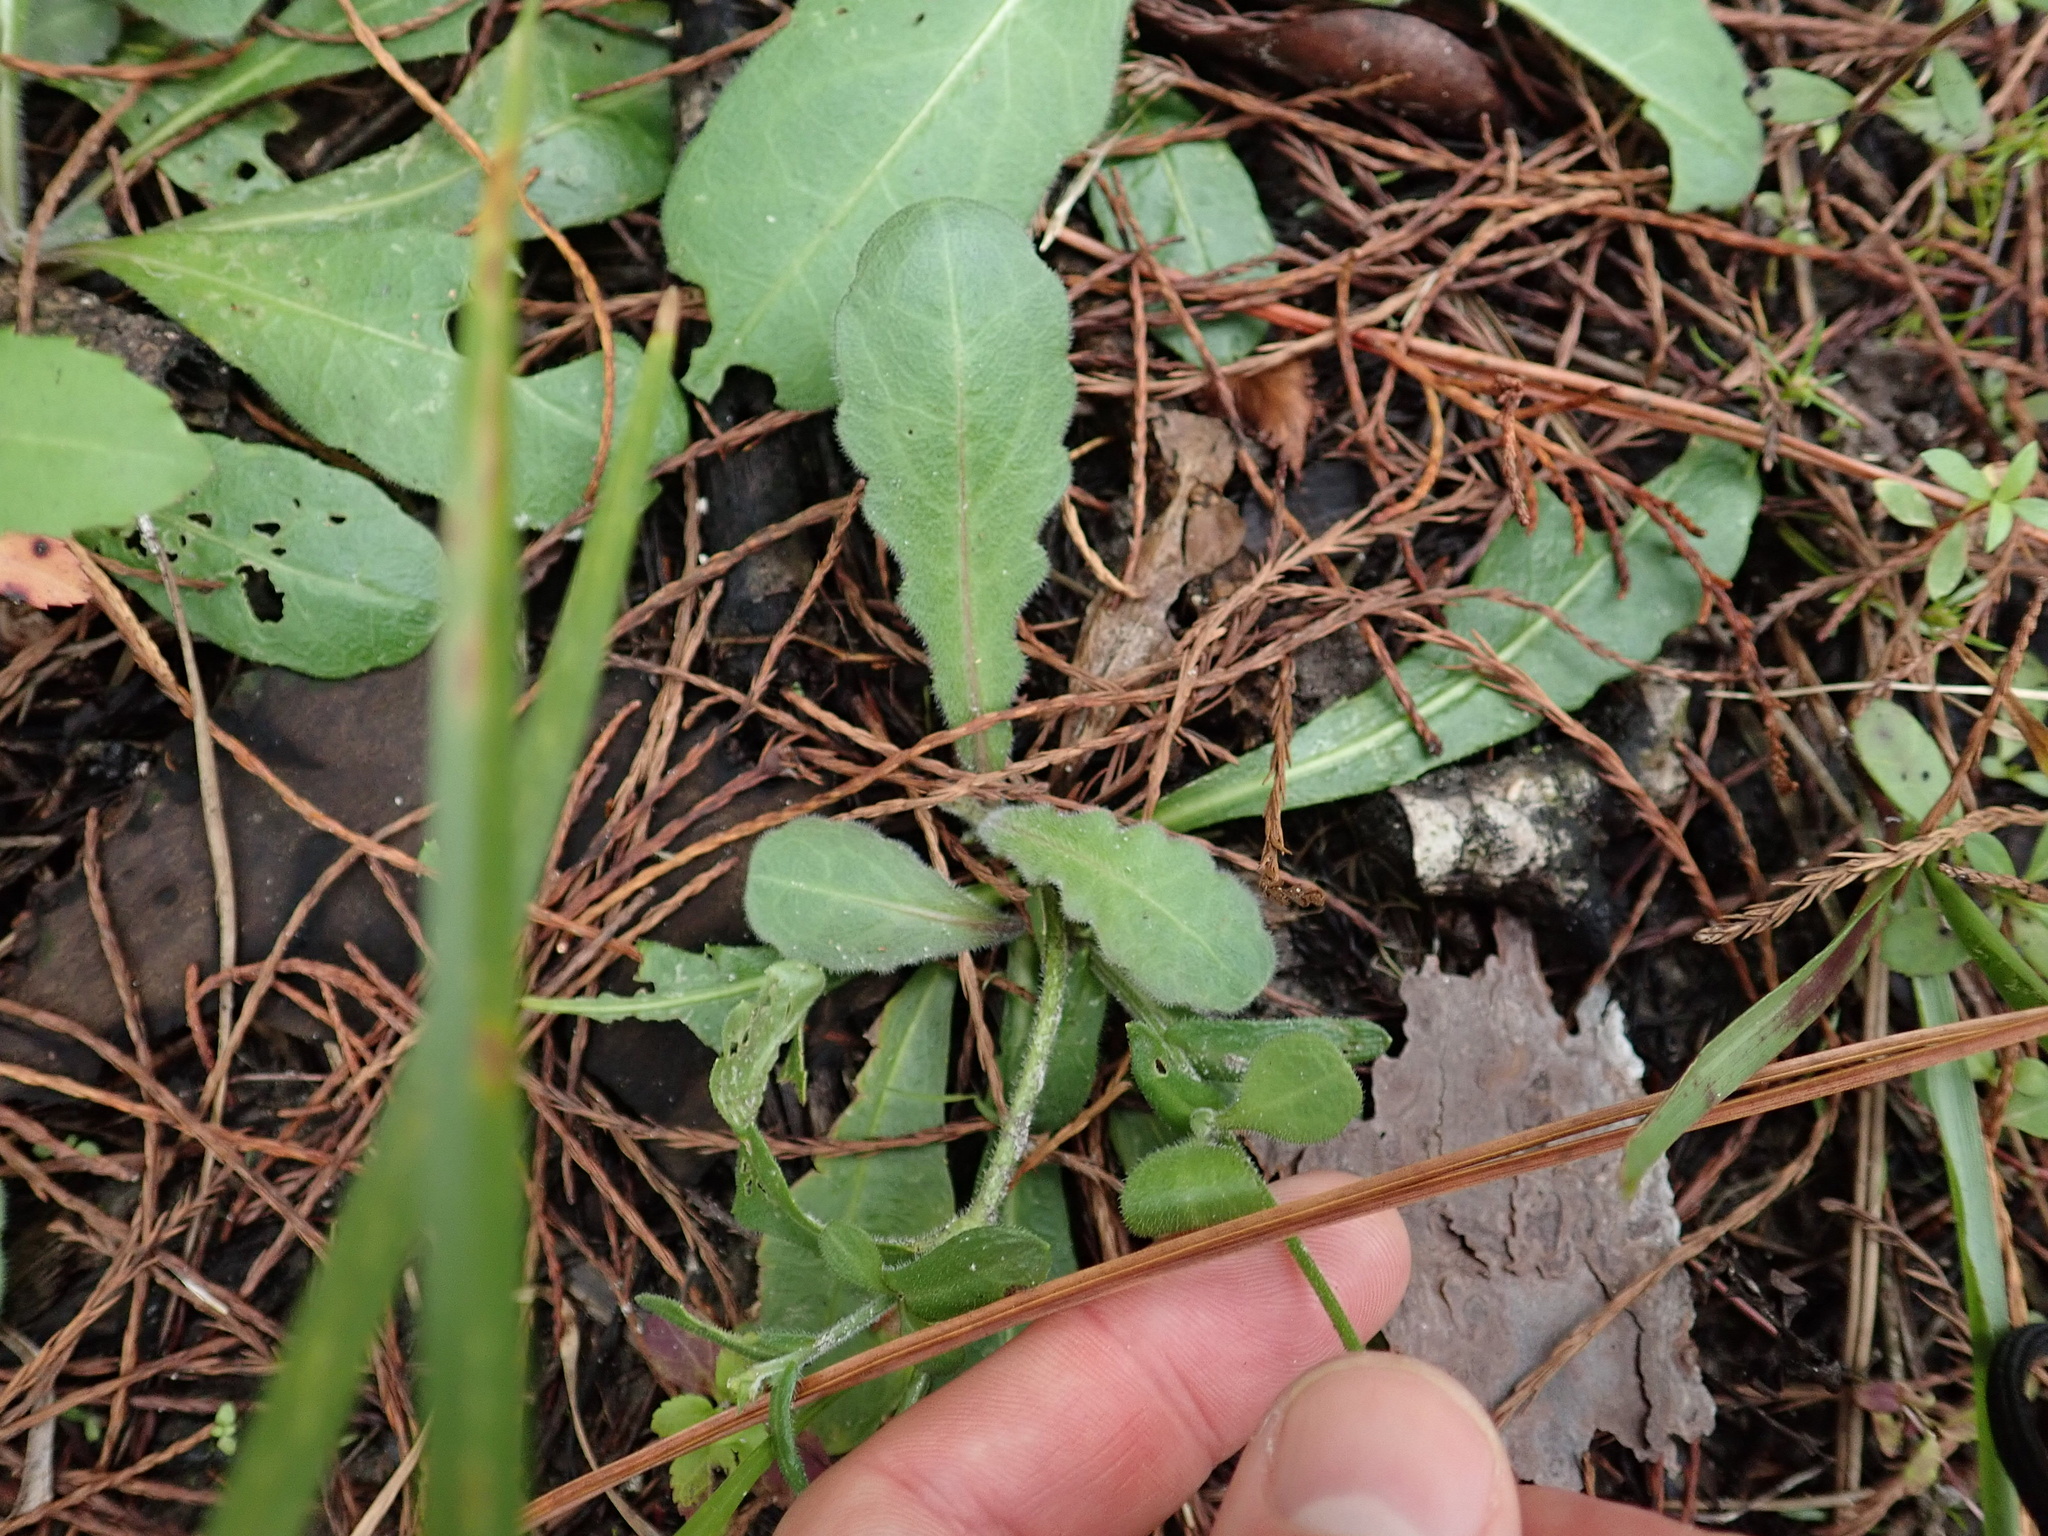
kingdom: Plantae
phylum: Tracheophyta
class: Magnoliopsida
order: Asterales
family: Asteraceae
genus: Erigeron
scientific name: Erigeron quercifolius
